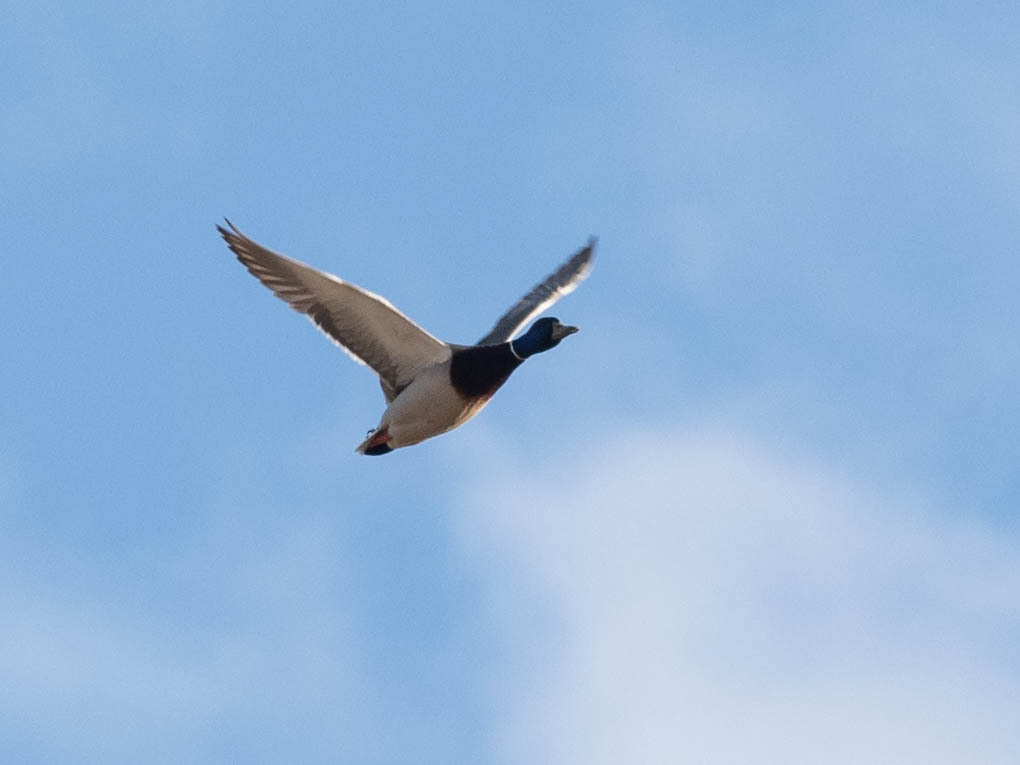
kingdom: Animalia
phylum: Chordata
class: Aves
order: Anseriformes
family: Anatidae
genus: Anas
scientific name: Anas platyrhynchos
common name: Mallard
